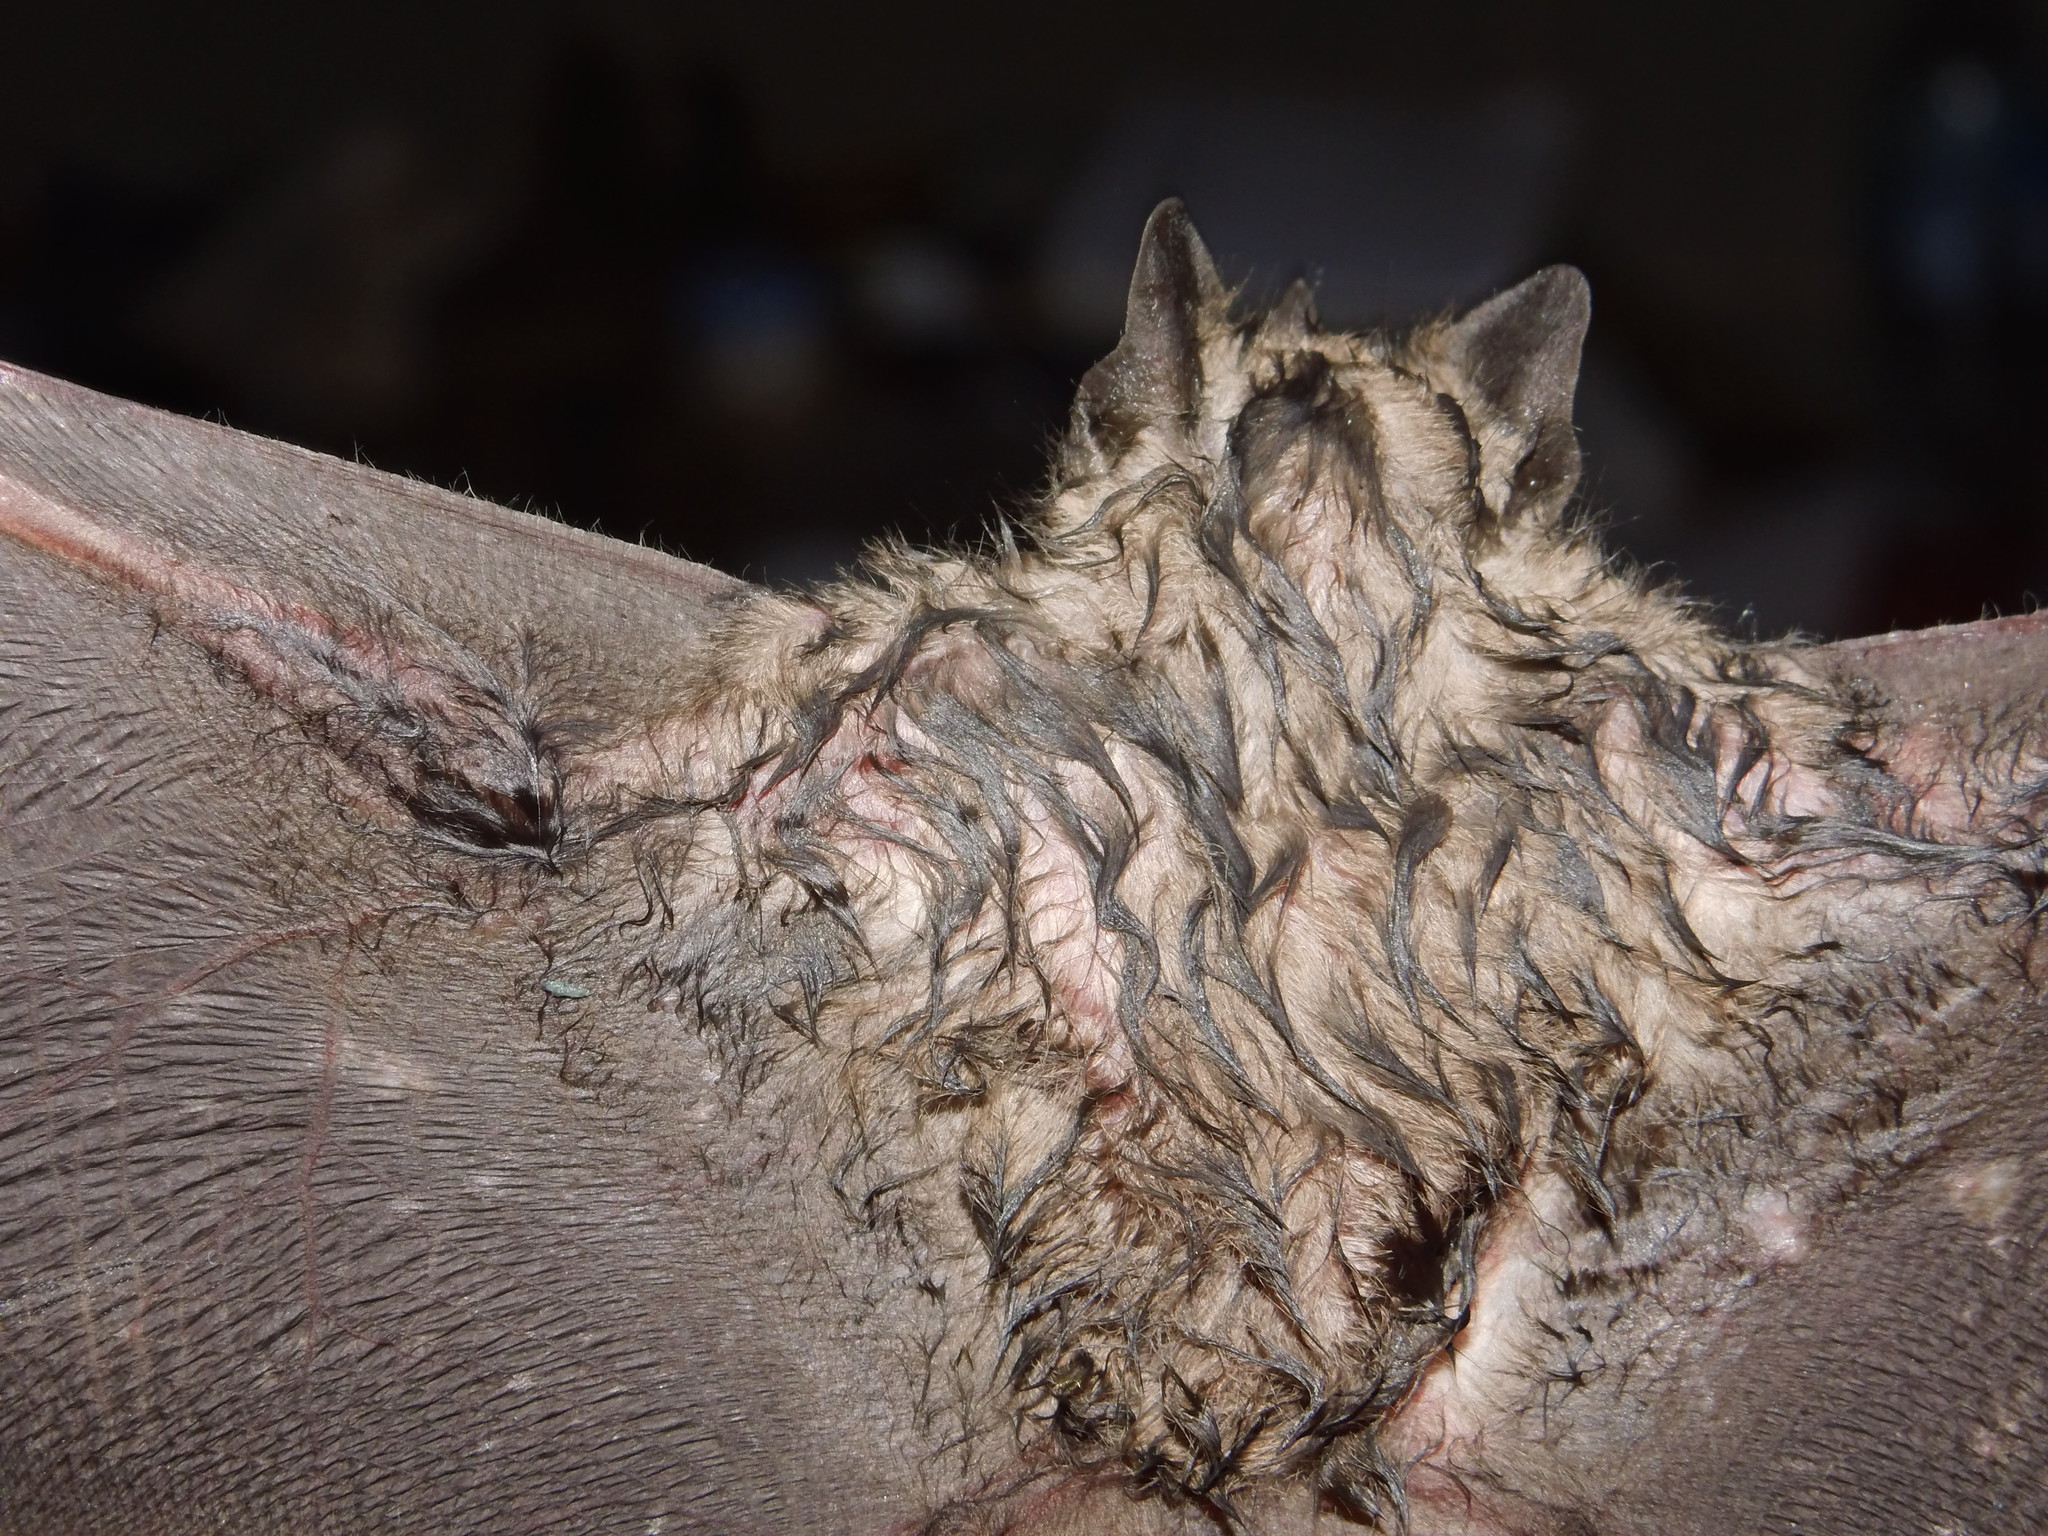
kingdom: Animalia
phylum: Chordata
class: Mammalia
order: Chiroptera
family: Phyllostomidae
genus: Artibeus
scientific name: Artibeus toltecus
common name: Toltec fruit-eating bat
